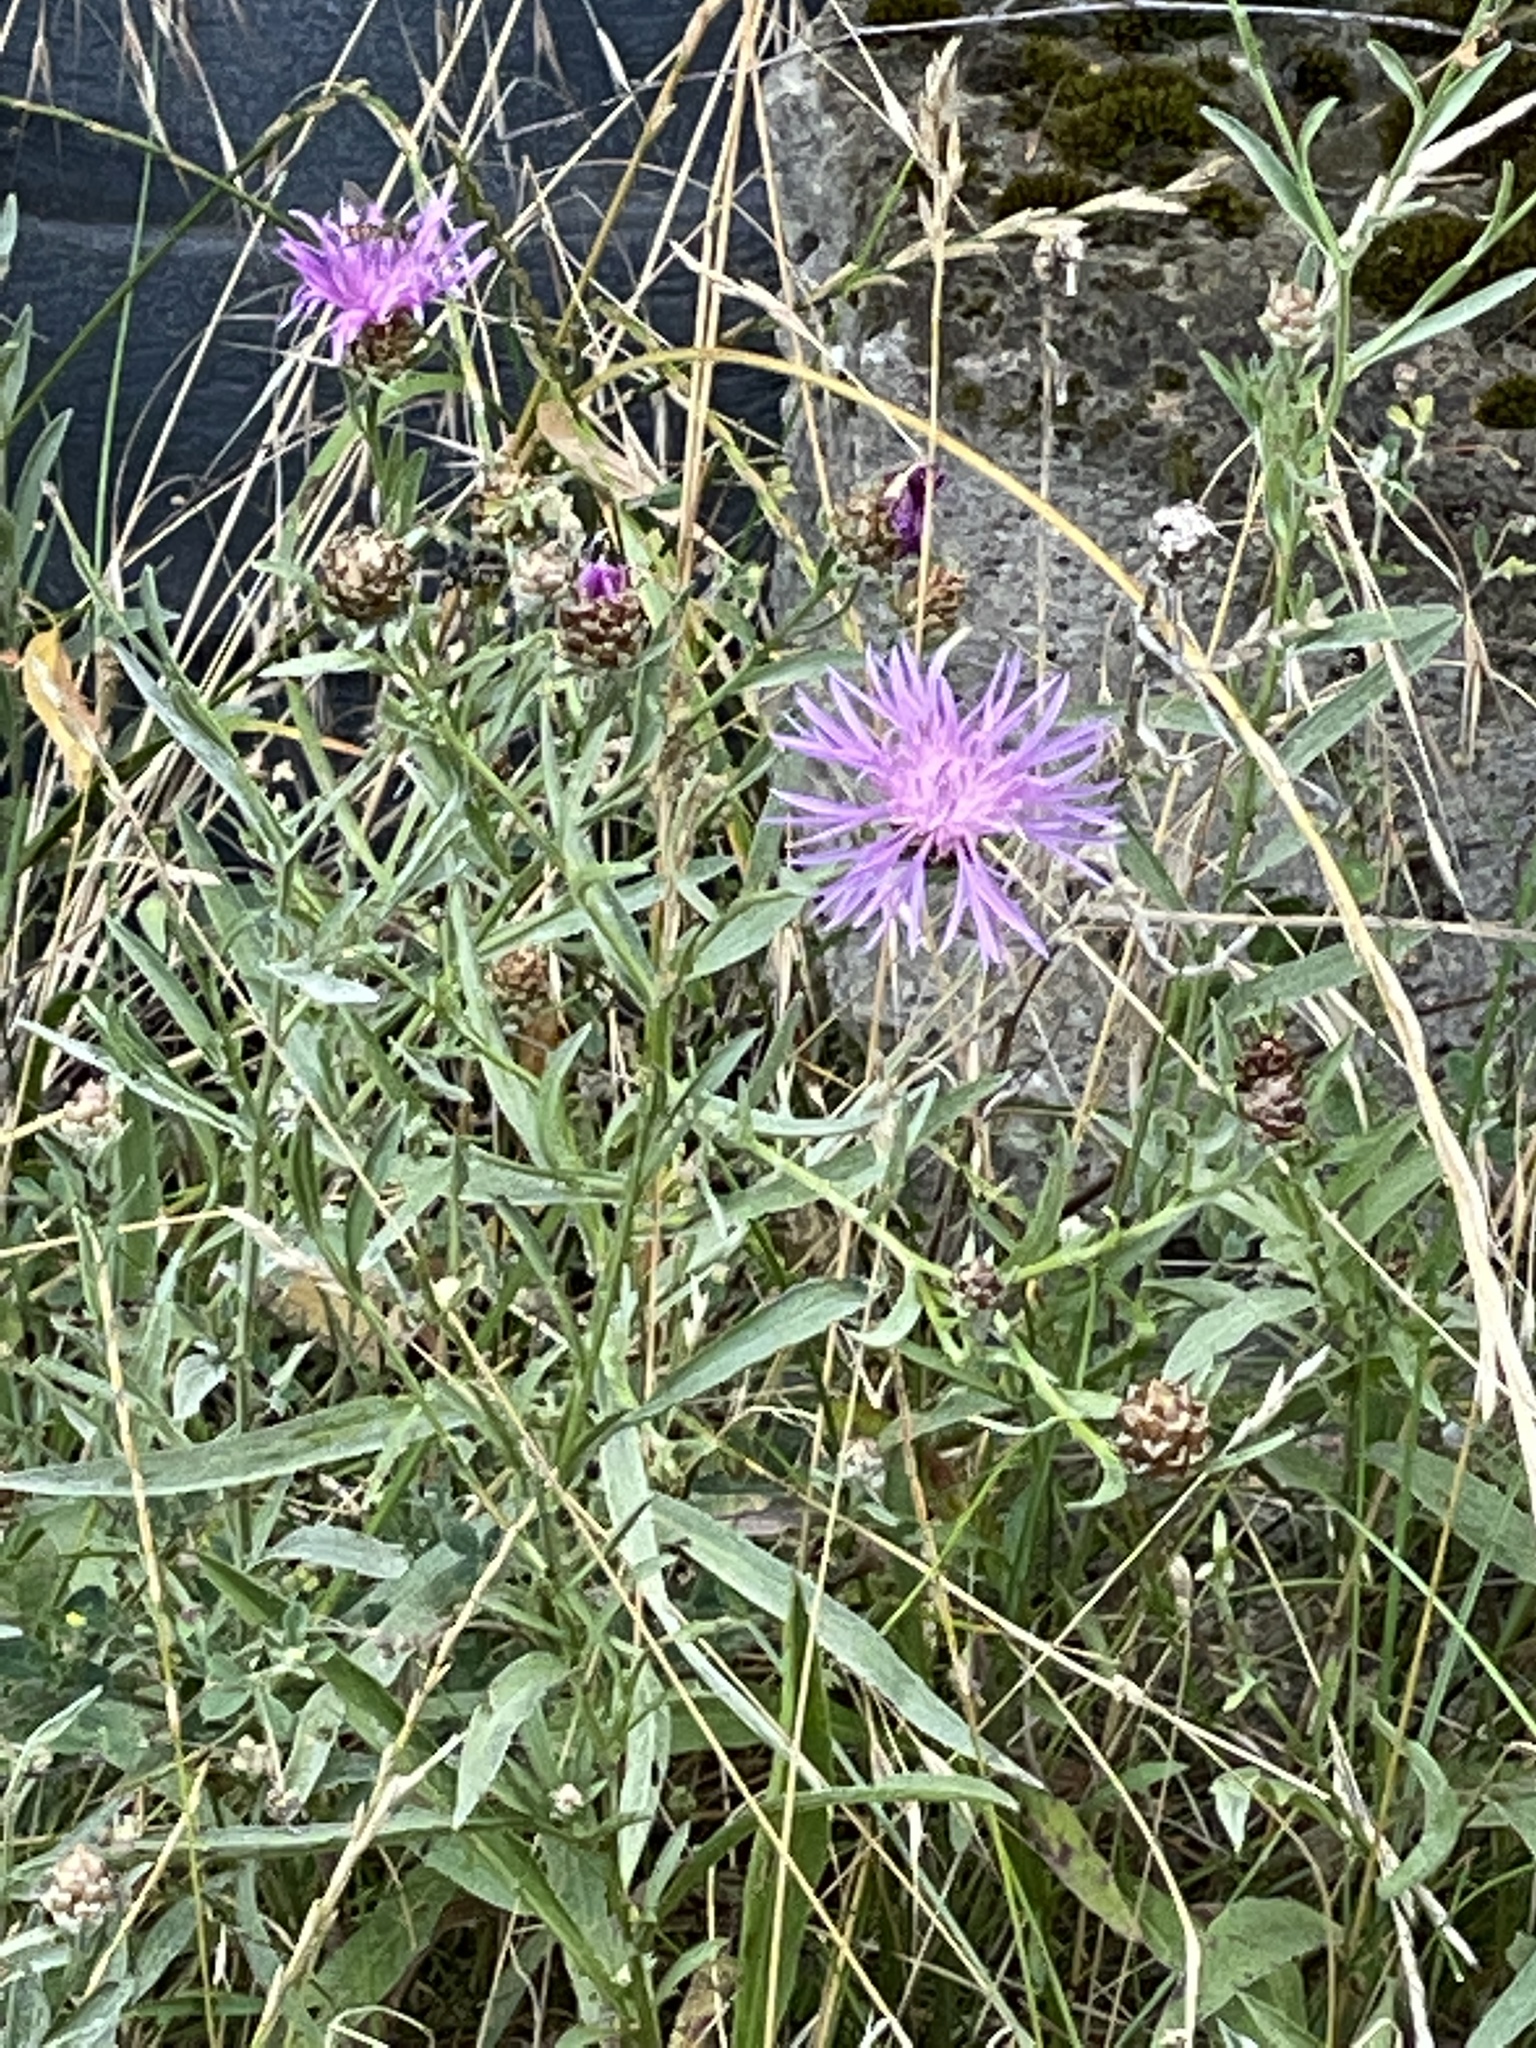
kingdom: Plantae
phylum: Tracheophyta
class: Magnoliopsida
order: Asterales
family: Asteraceae
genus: Centaurea
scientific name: Centaurea jacea
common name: Brown knapweed
